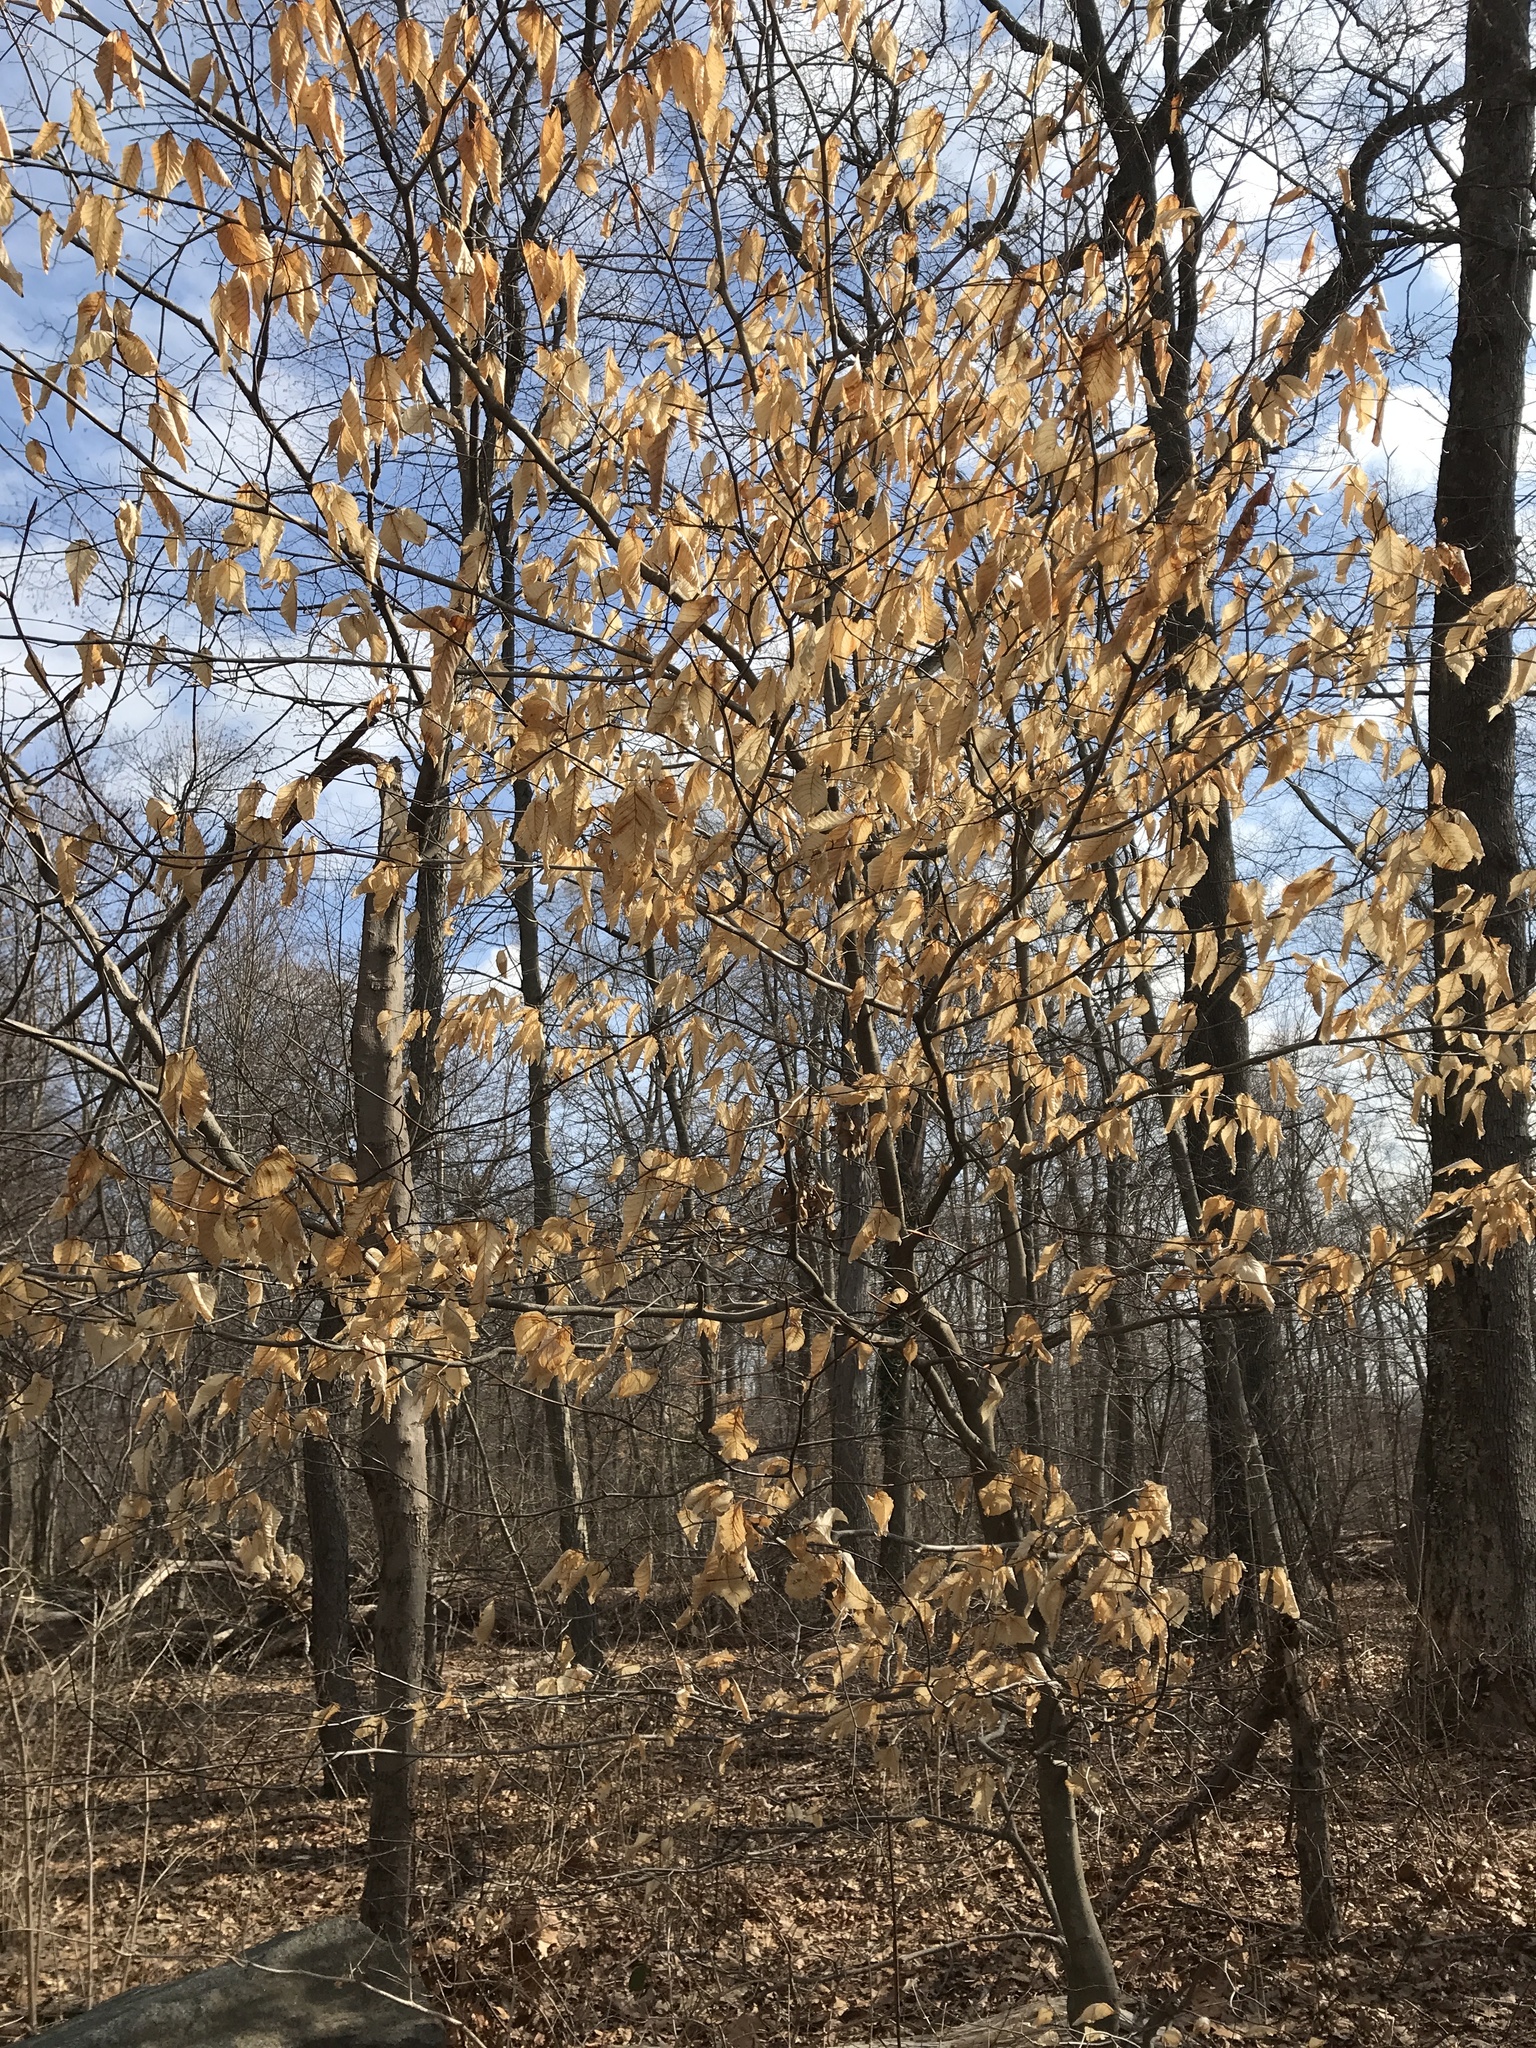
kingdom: Plantae
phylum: Tracheophyta
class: Magnoliopsida
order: Fagales
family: Fagaceae
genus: Fagus
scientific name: Fagus grandifolia
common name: American beech
